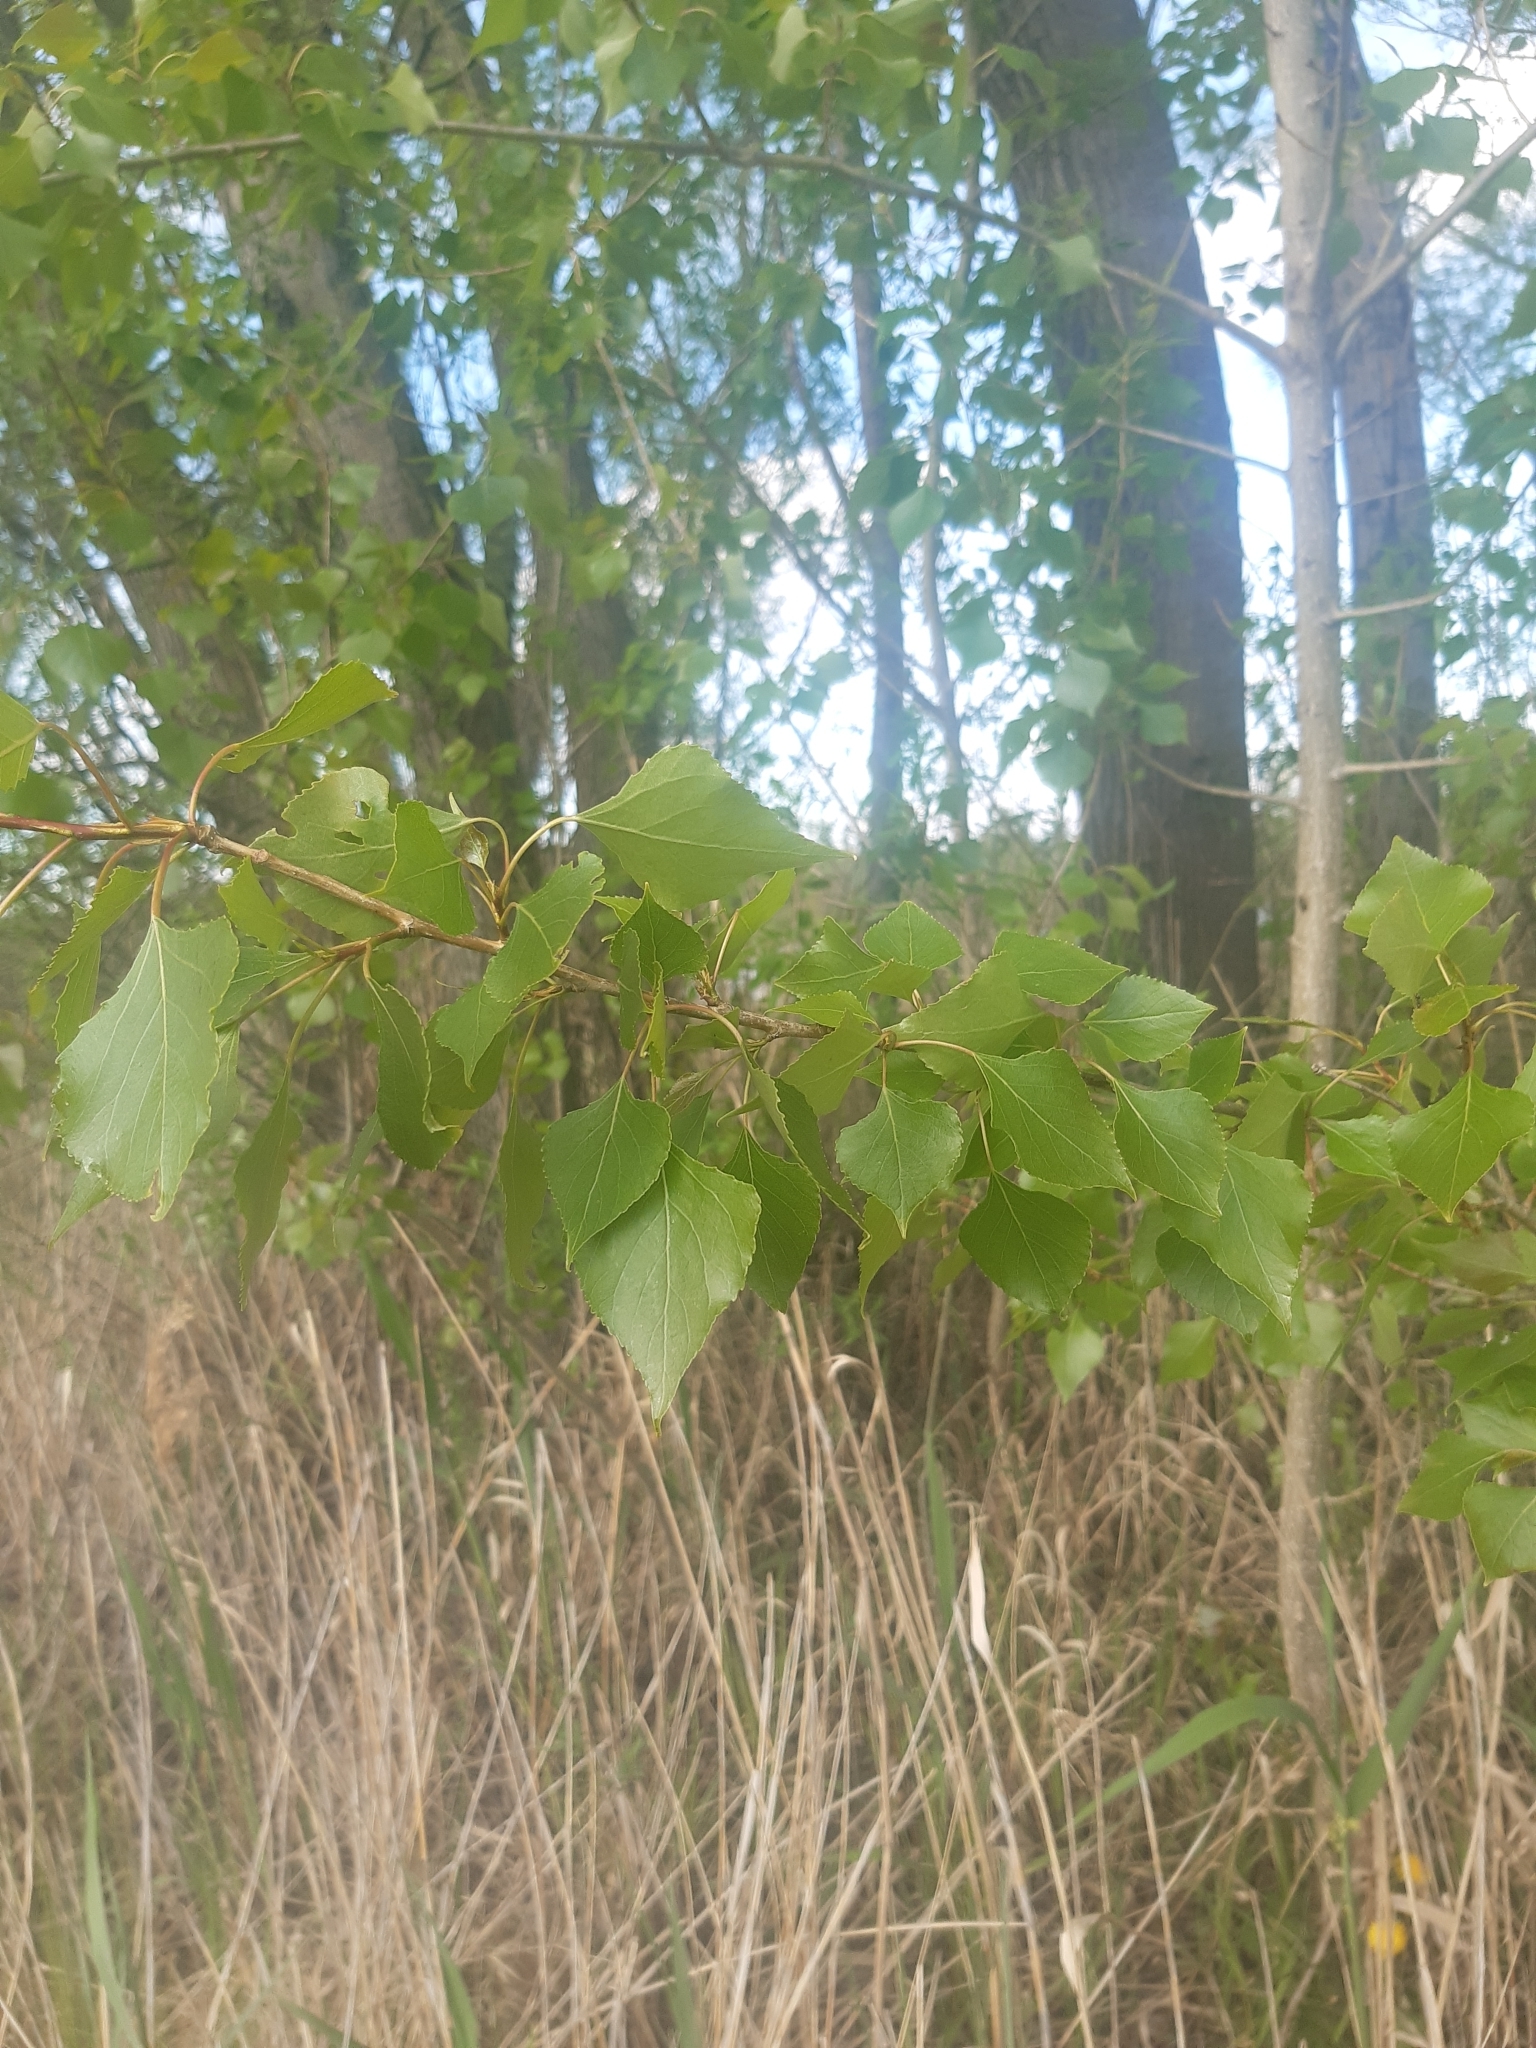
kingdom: Plantae
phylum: Tracheophyta
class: Magnoliopsida
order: Malpighiales
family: Salicaceae
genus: Populus
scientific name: Populus nigra
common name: Black poplar
